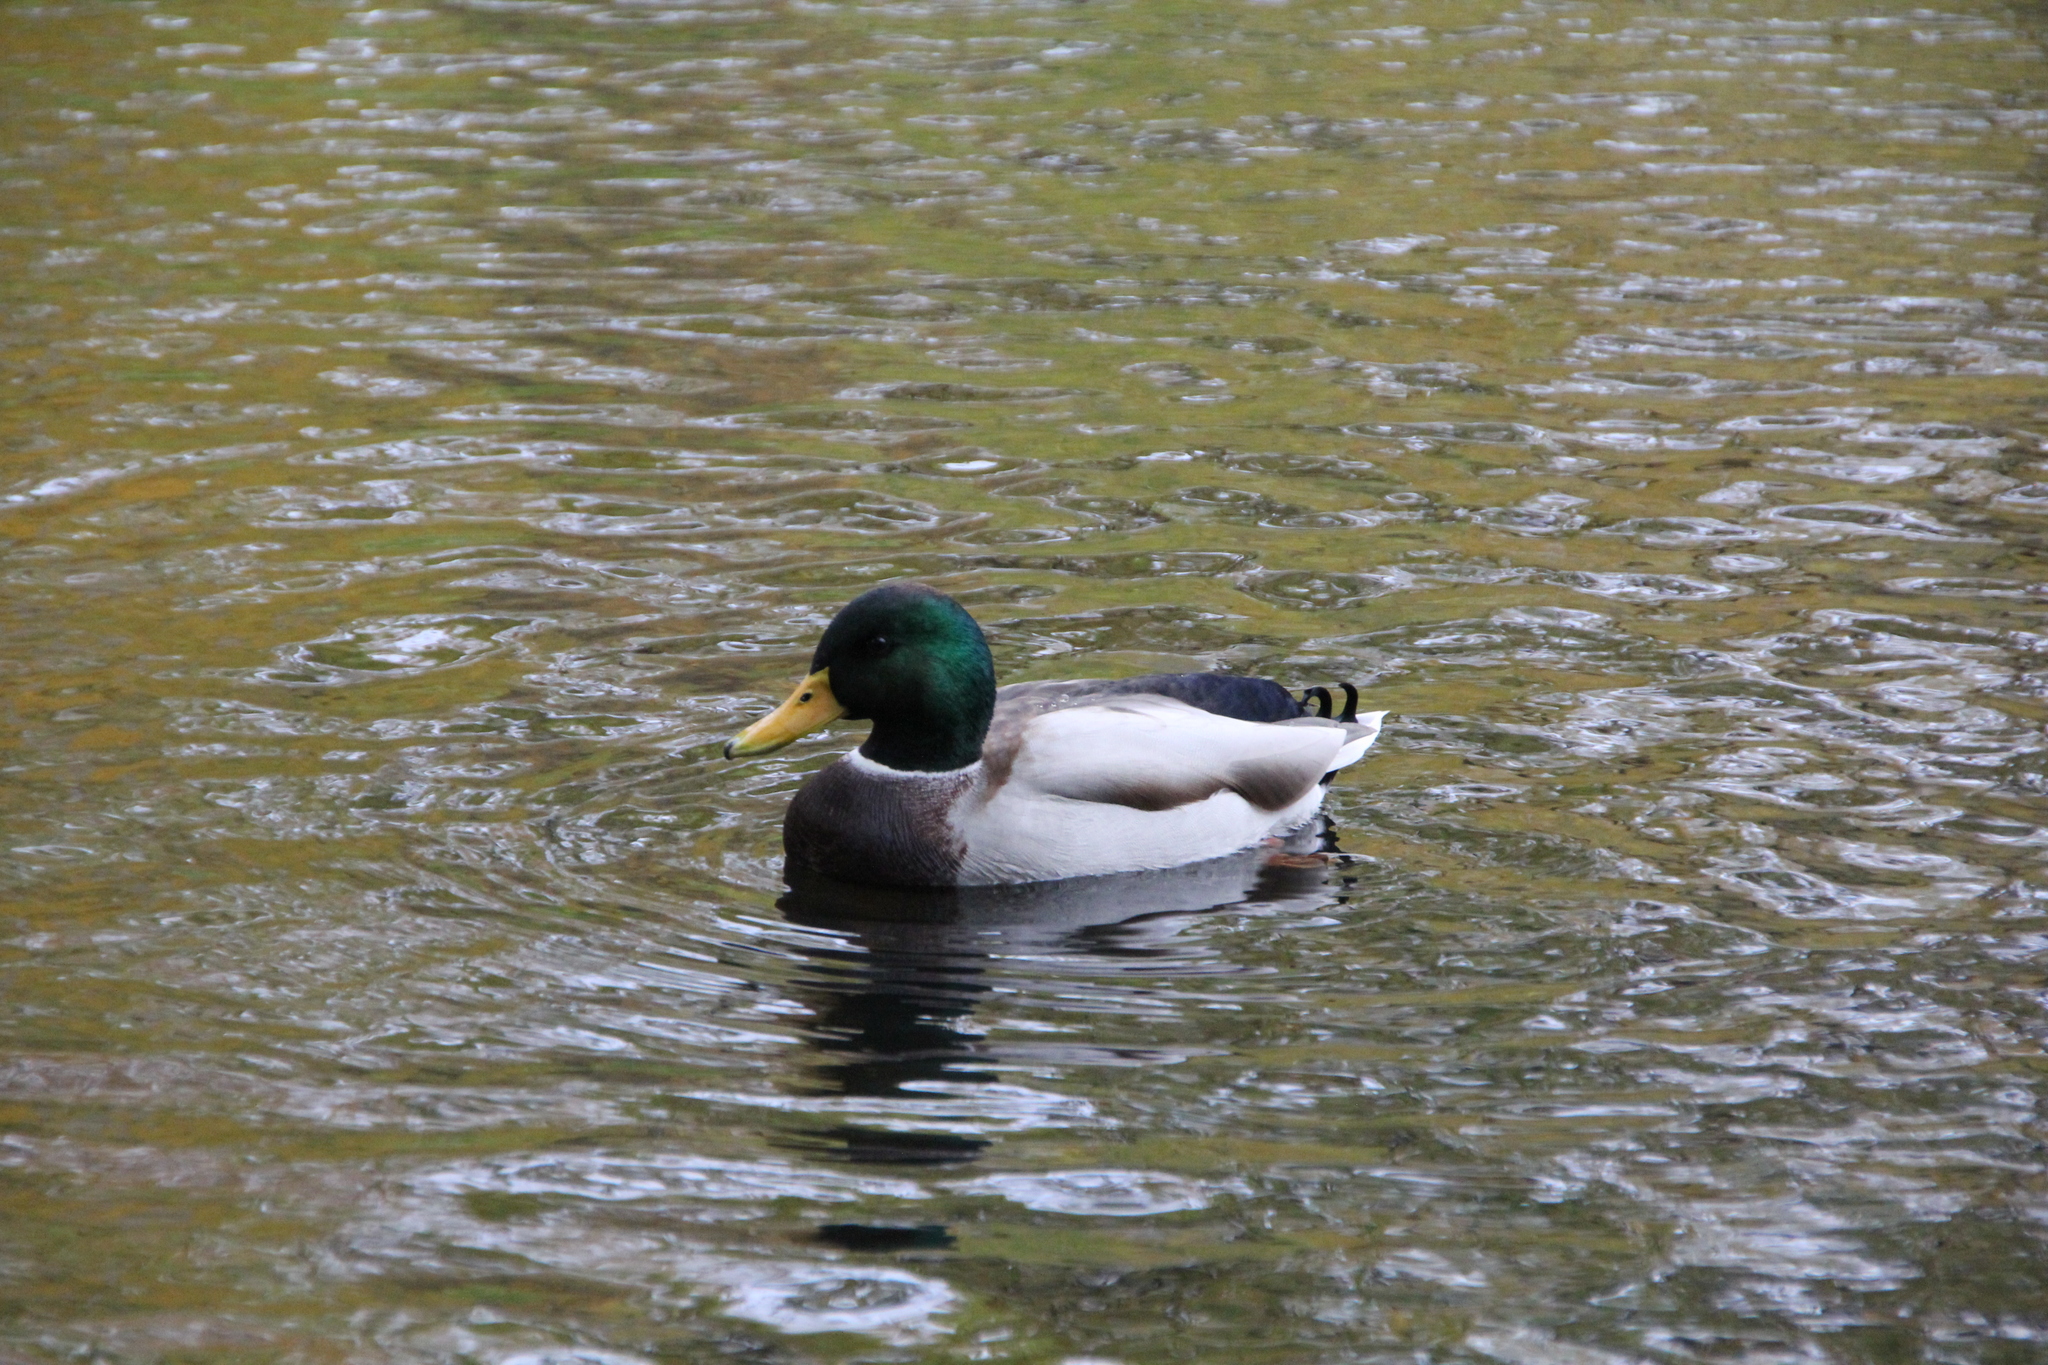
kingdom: Animalia
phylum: Chordata
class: Aves
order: Anseriformes
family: Anatidae
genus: Anas
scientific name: Anas platyrhynchos
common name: Mallard
